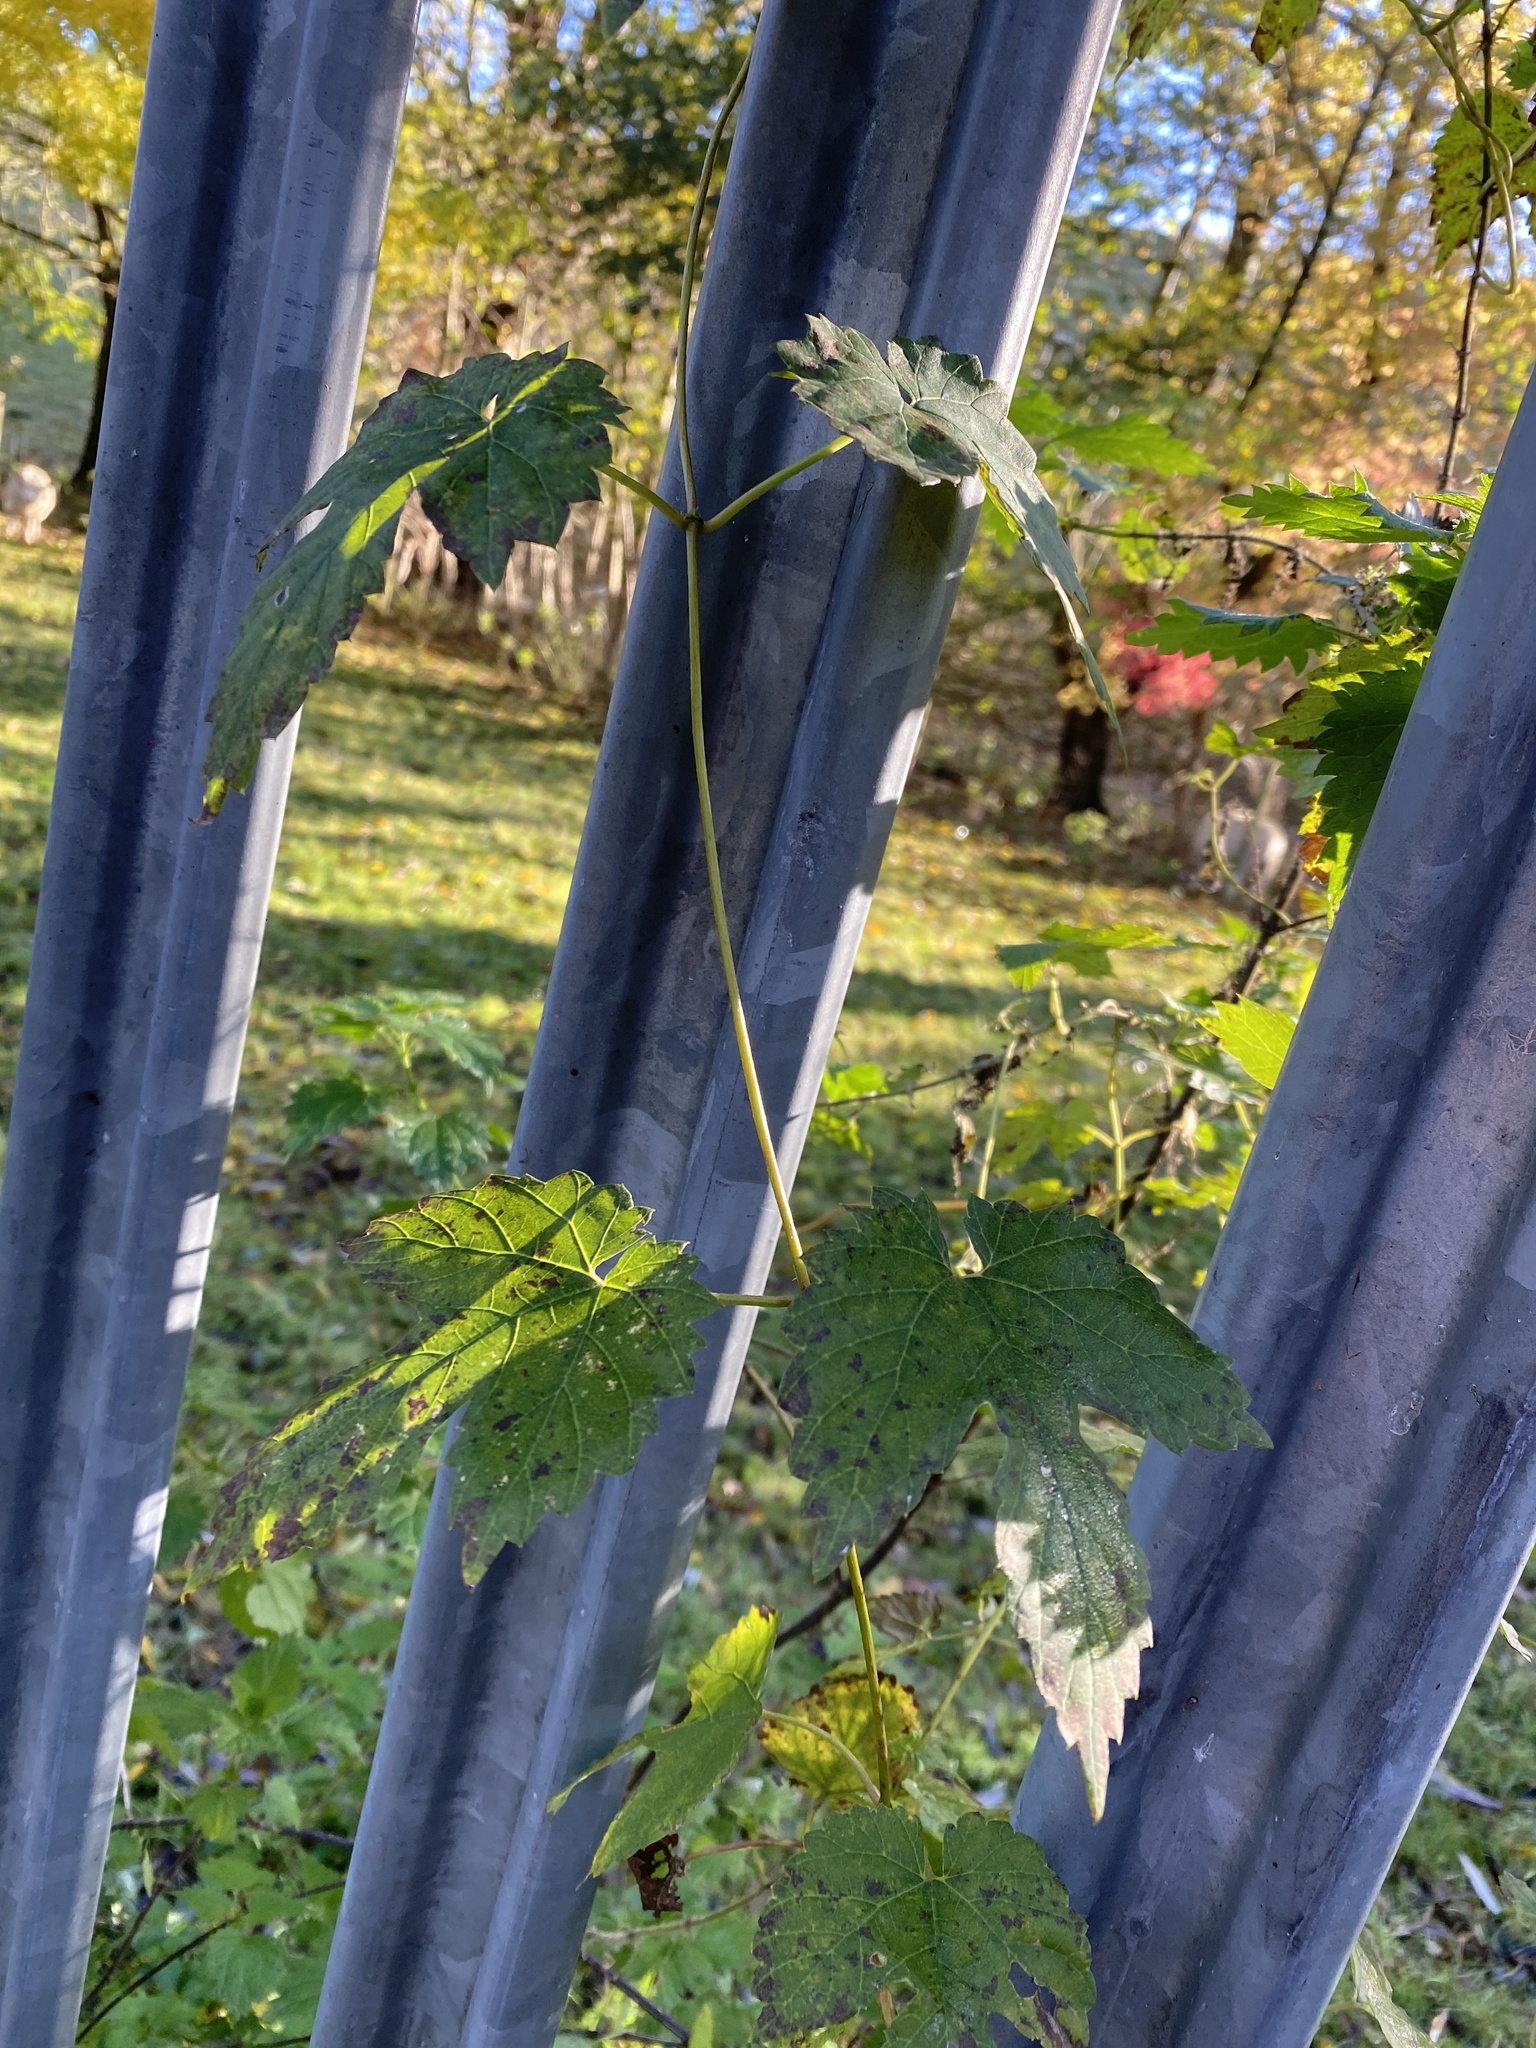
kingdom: Plantae
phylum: Tracheophyta
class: Magnoliopsida
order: Rosales
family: Cannabaceae
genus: Humulus
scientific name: Humulus lupulus
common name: Hop
